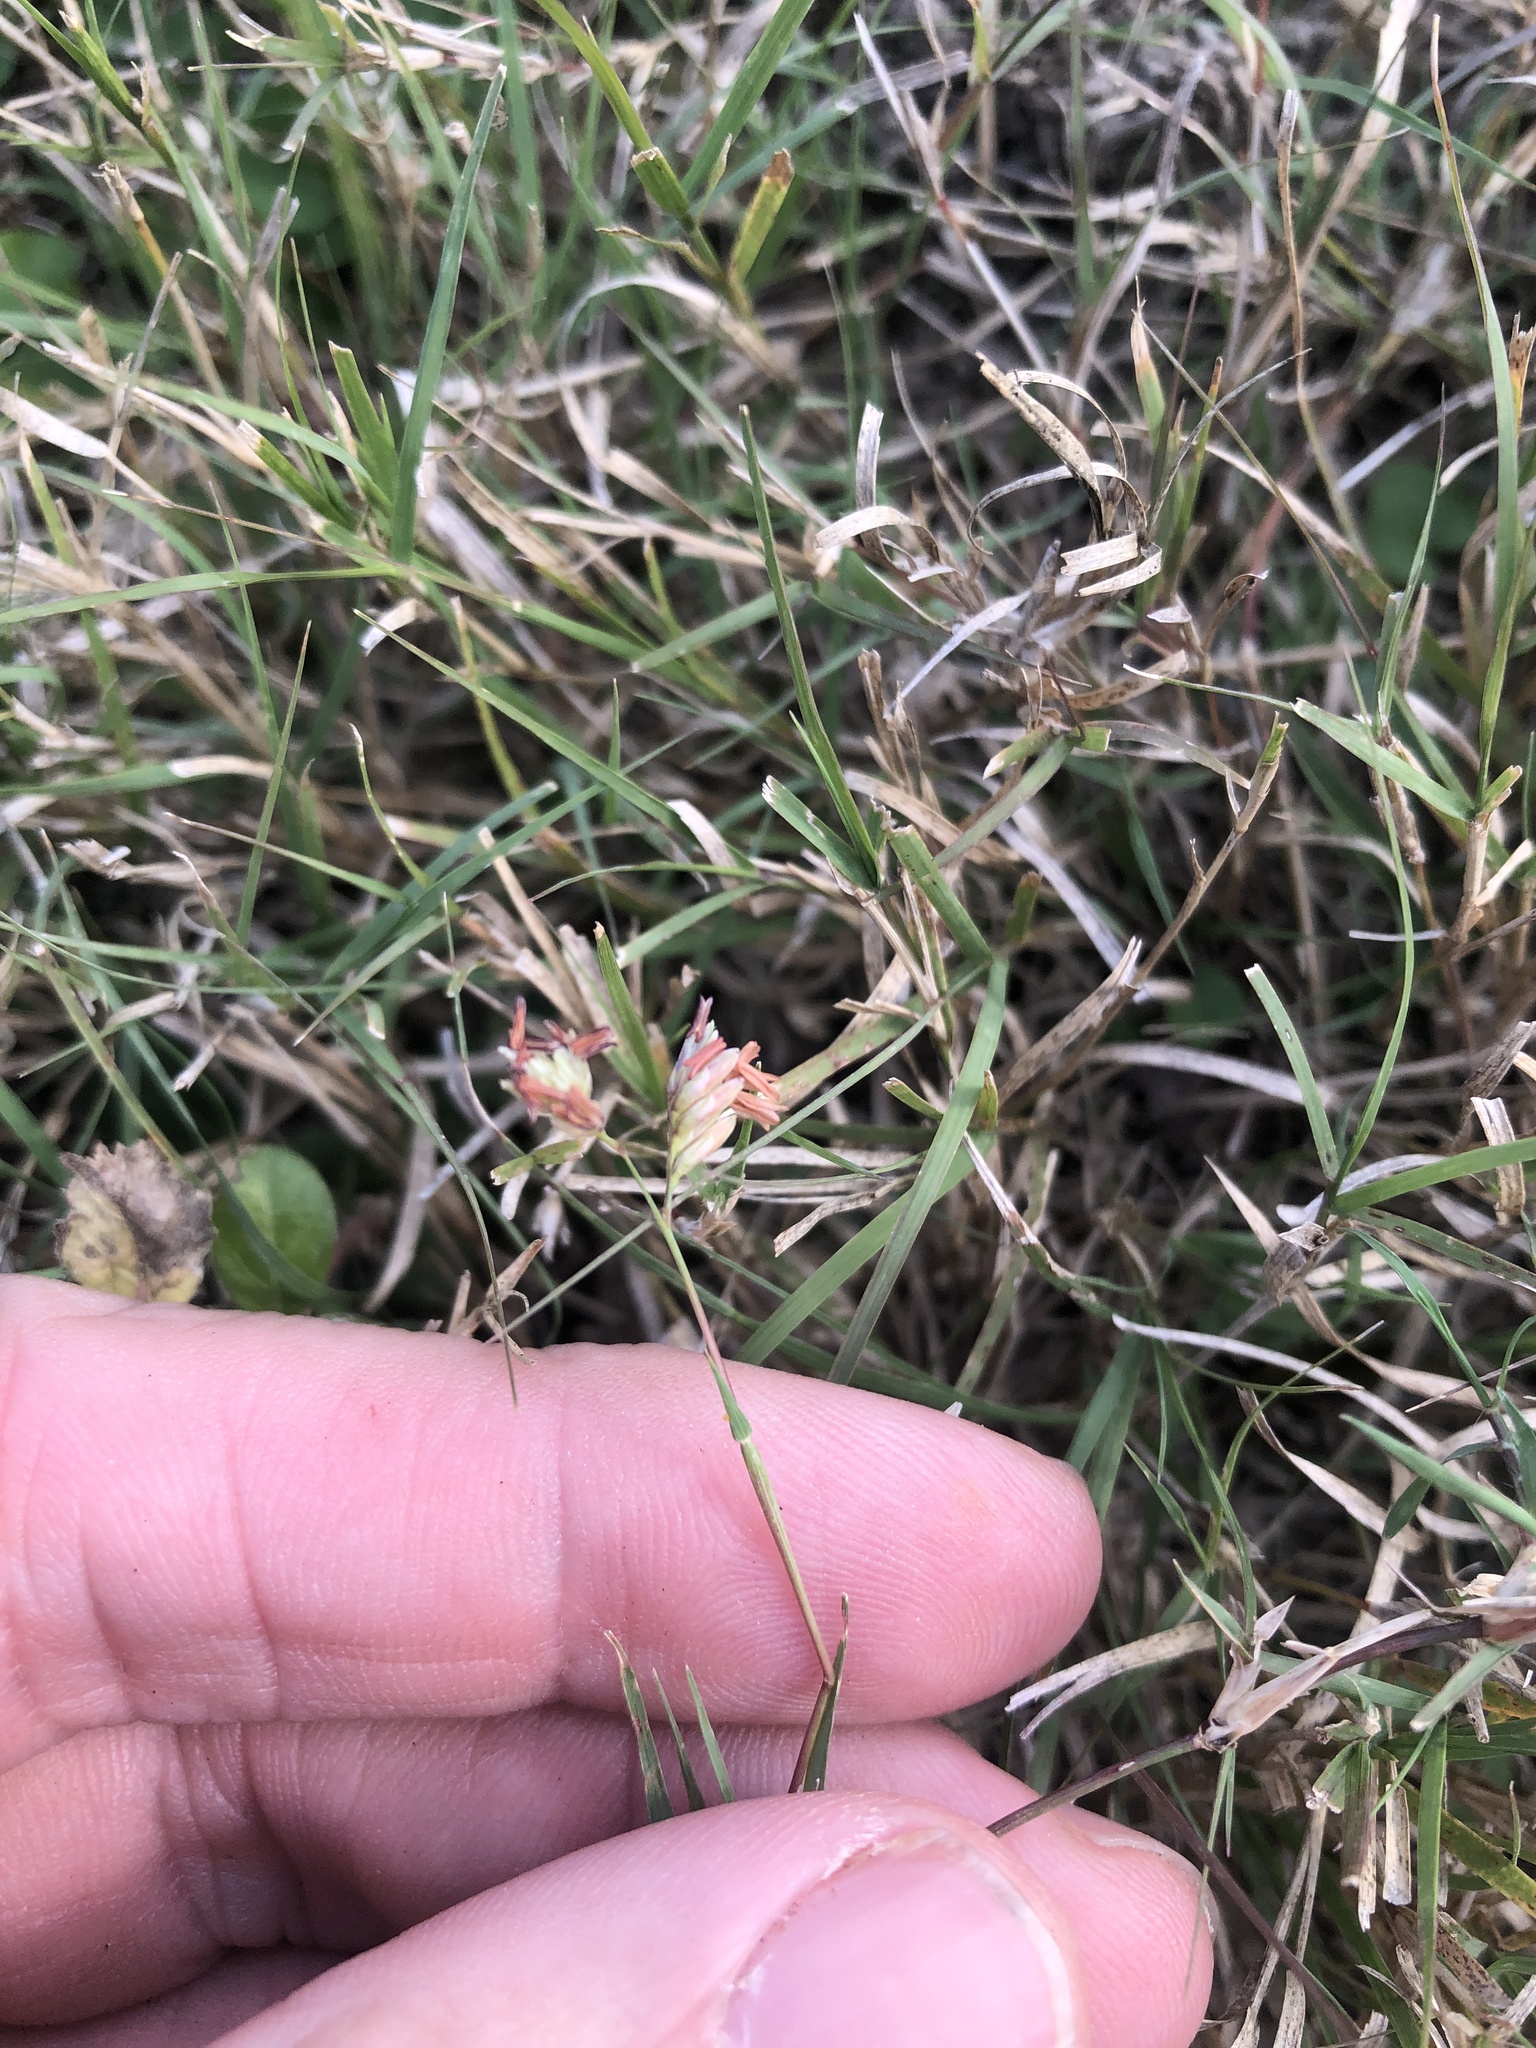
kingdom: Plantae
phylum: Tracheophyta
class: Liliopsida
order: Poales
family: Poaceae
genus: Bouteloua
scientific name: Bouteloua dactyloides
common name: Buffalo grass
